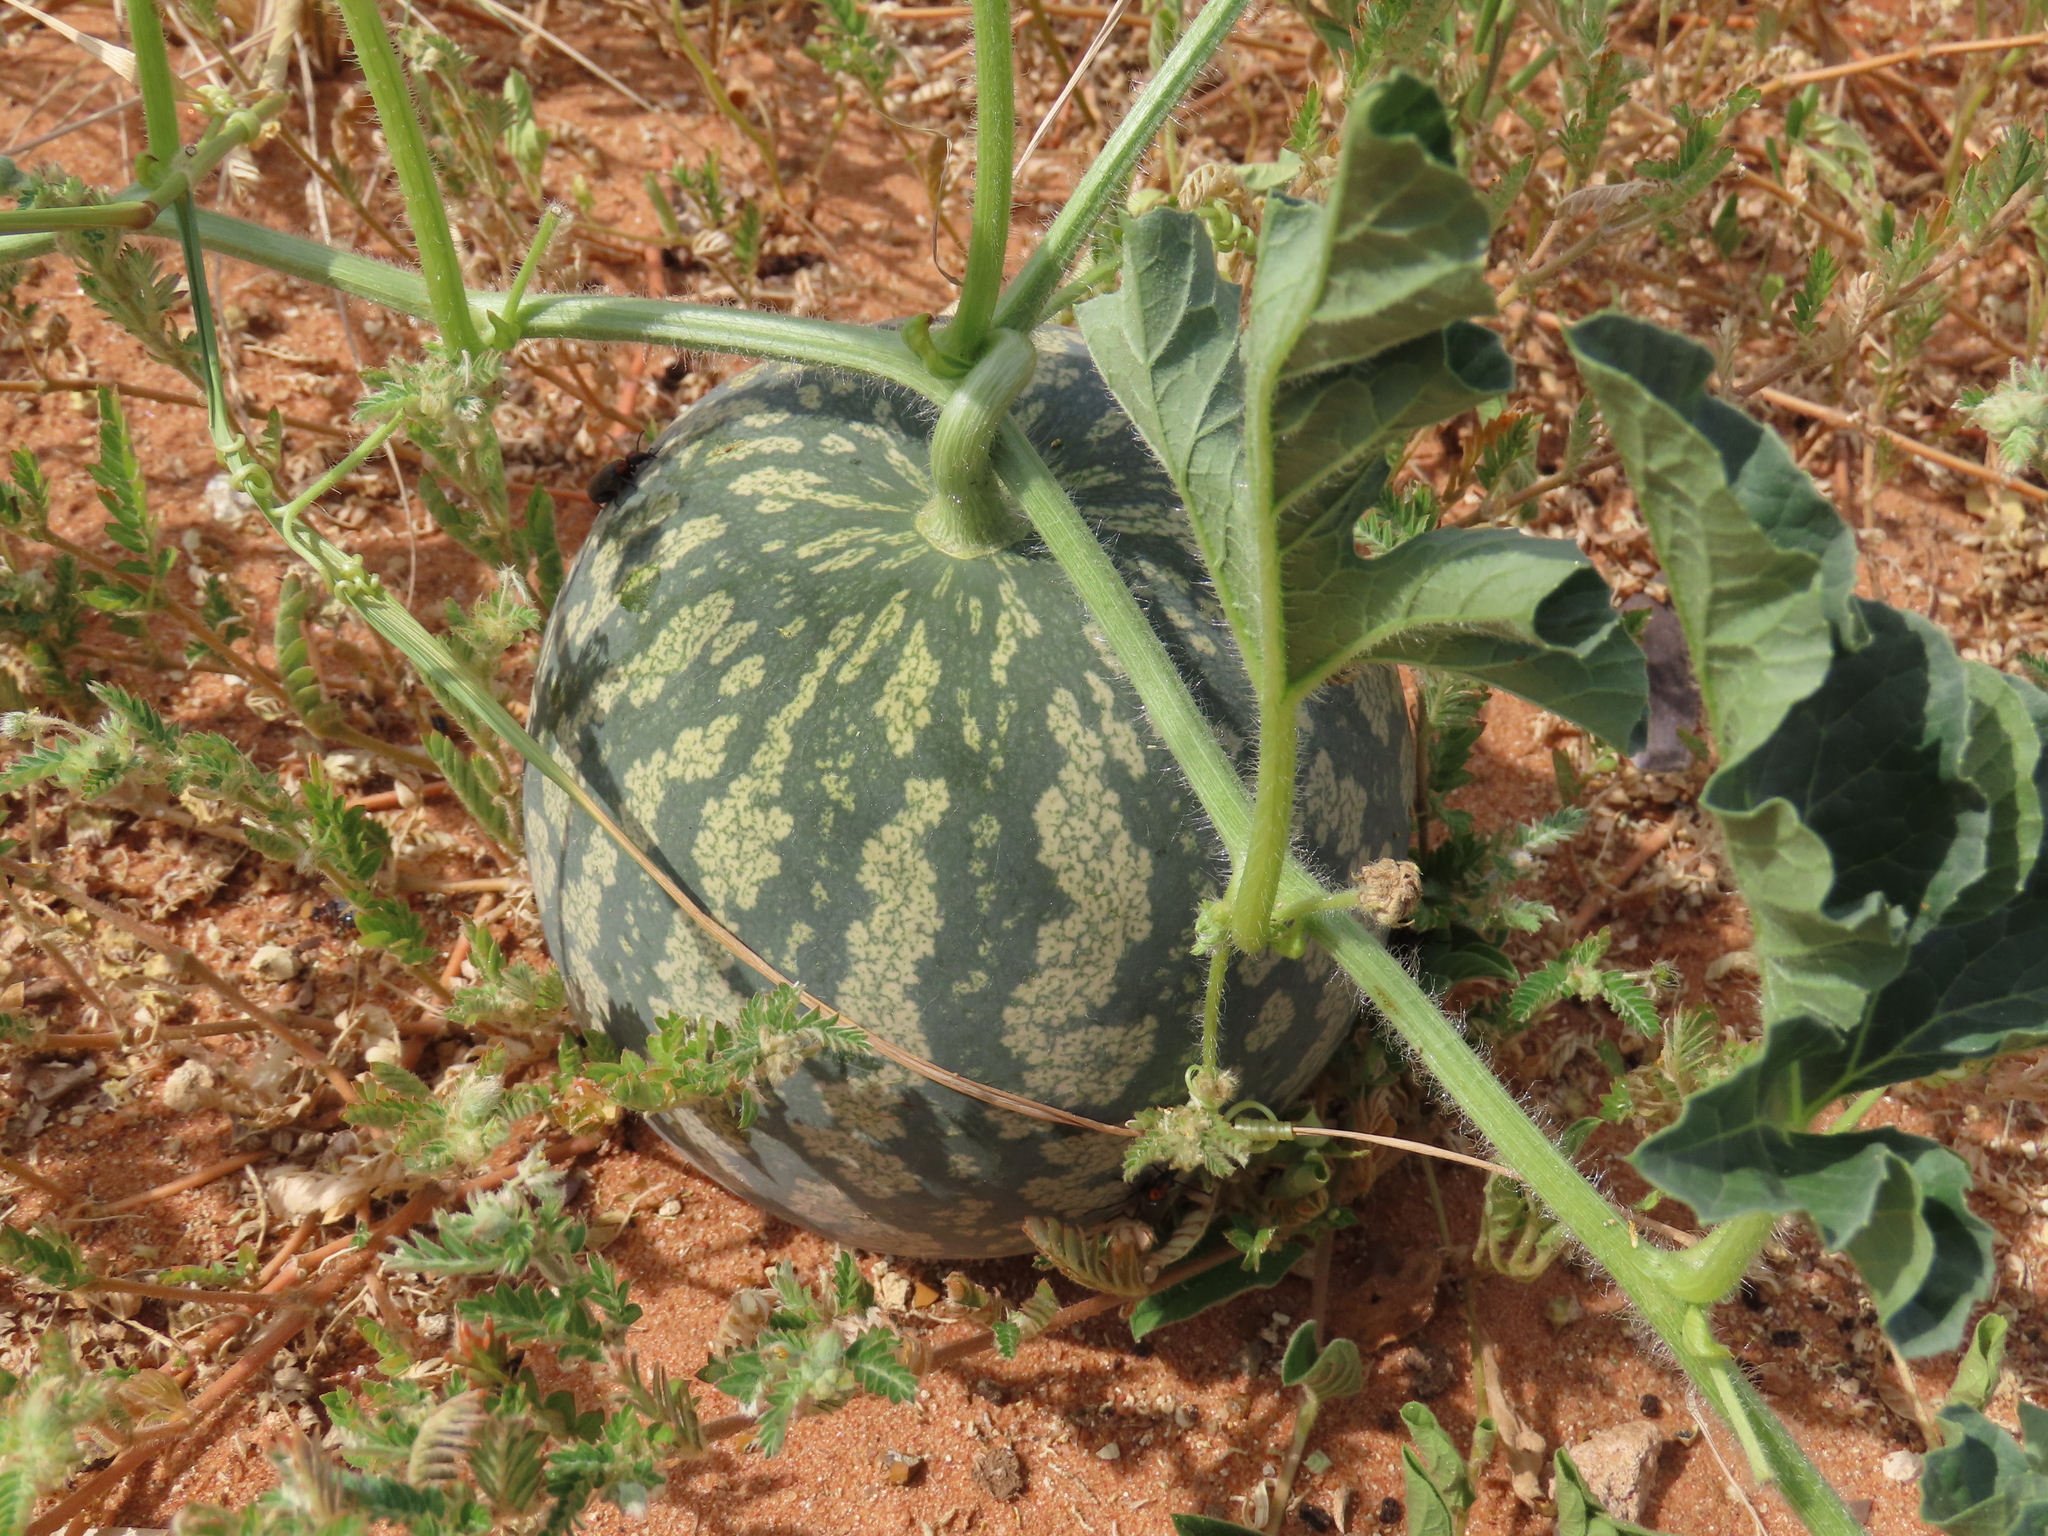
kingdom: Plantae
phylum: Tracheophyta
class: Magnoliopsida
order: Cucurbitales
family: Cucurbitaceae
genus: Citrullus
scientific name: Citrullus amarus
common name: Fodder-melon
